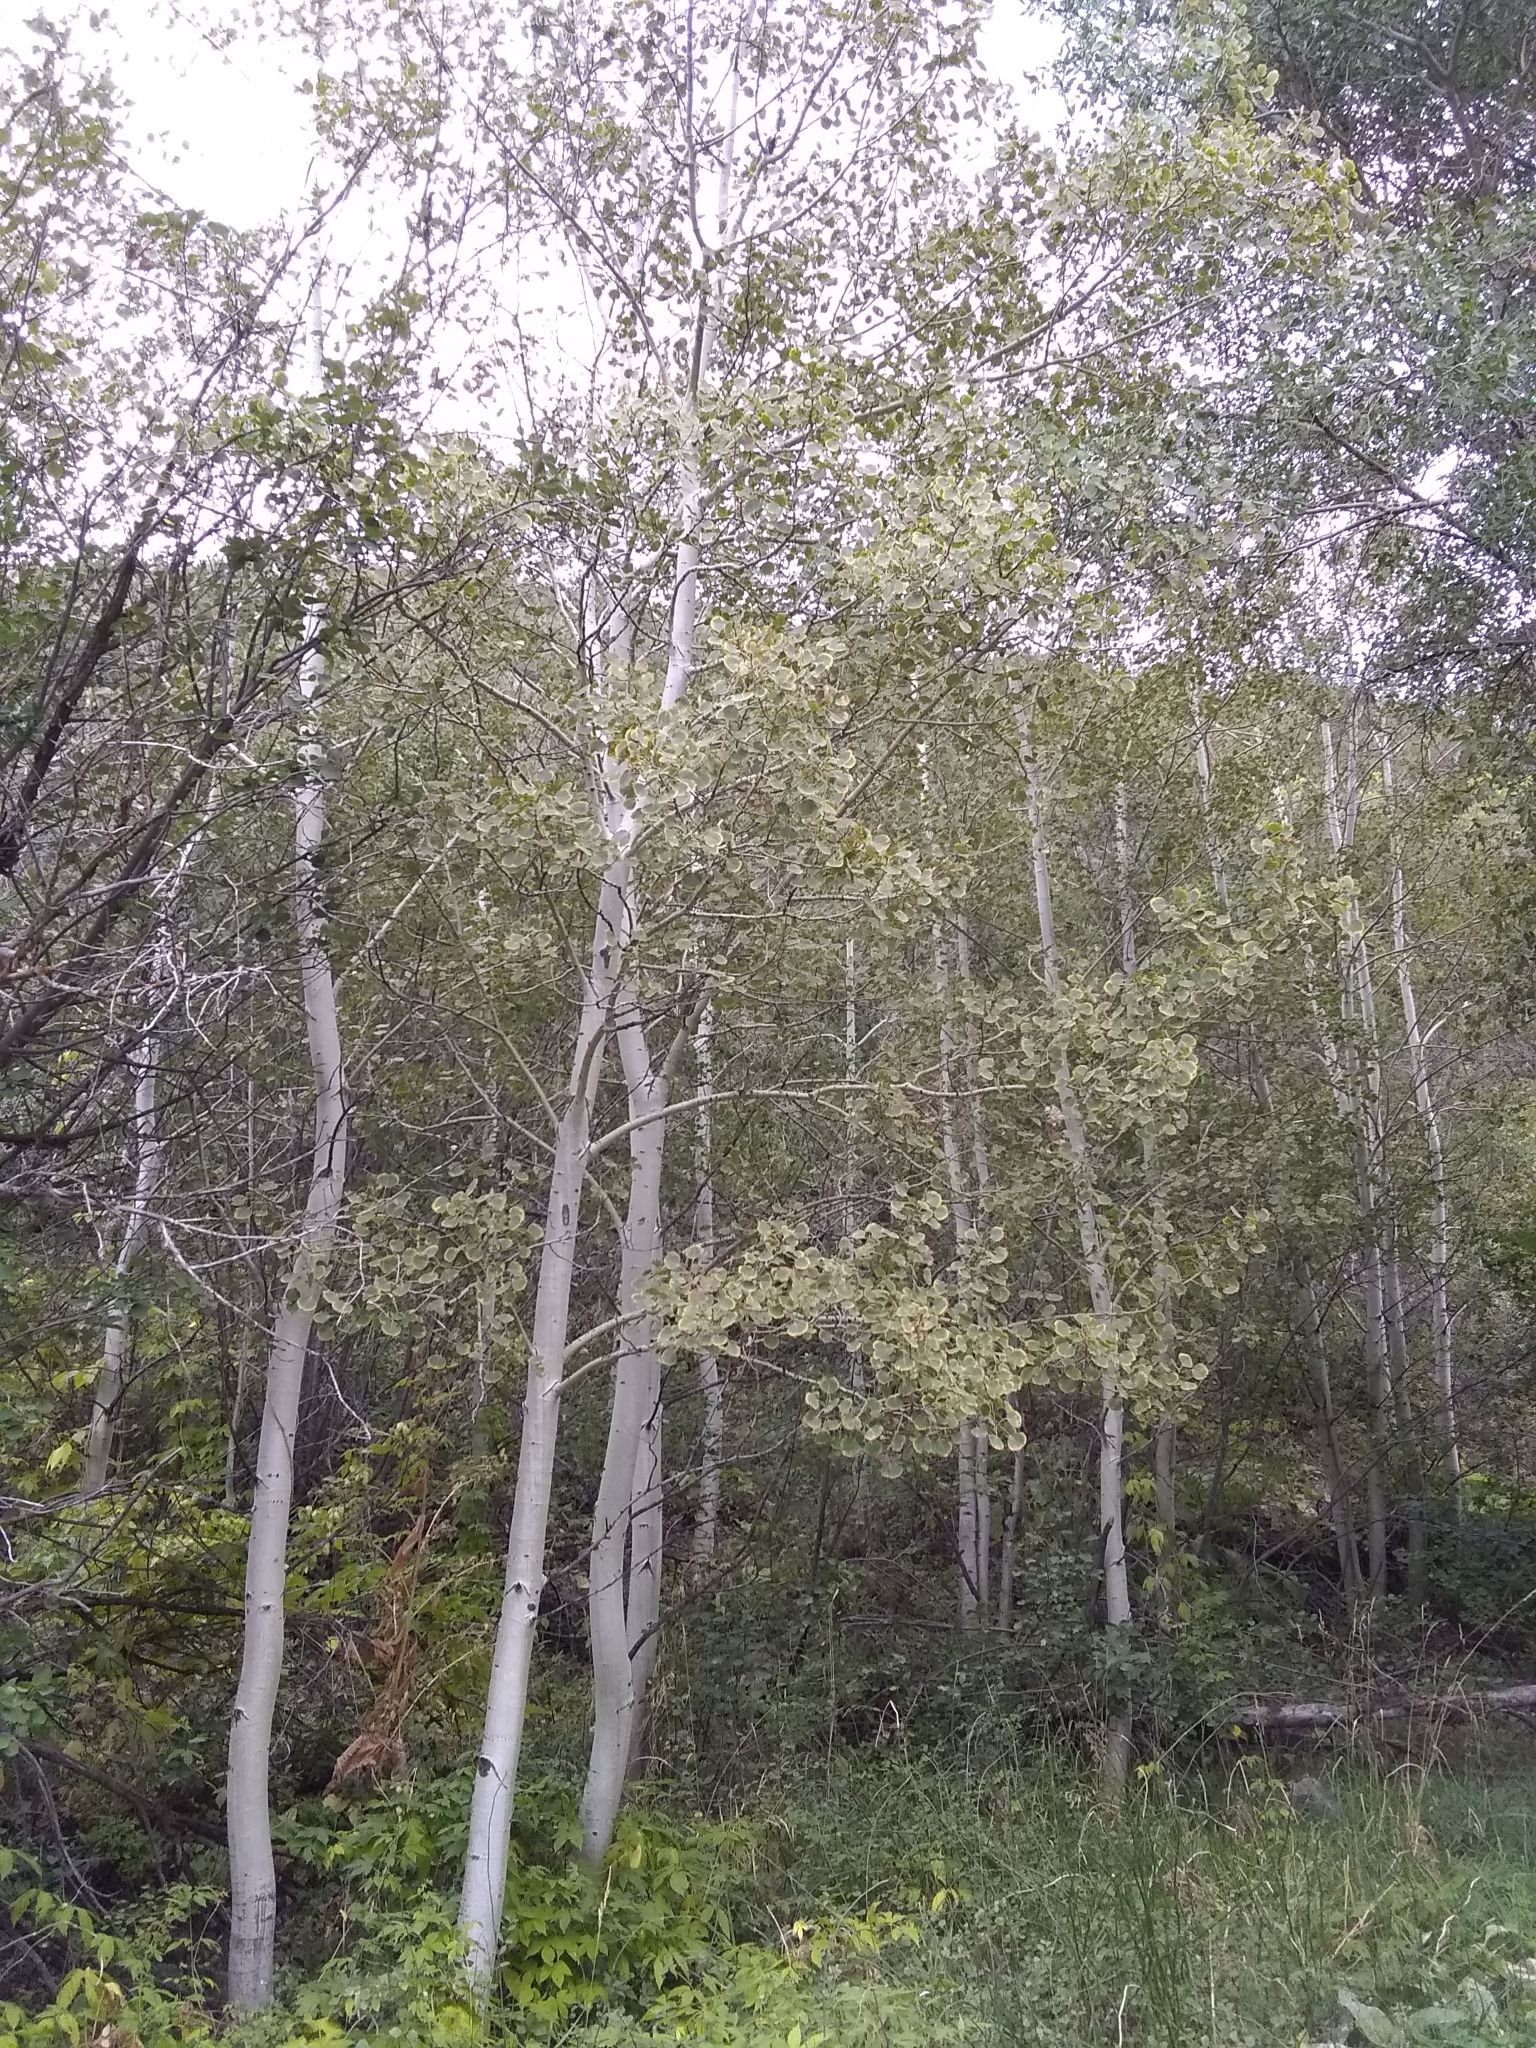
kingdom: Plantae
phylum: Tracheophyta
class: Magnoliopsida
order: Malpighiales
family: Salicaceae
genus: Populus
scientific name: Populus tremuloides
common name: Quaking aspen
